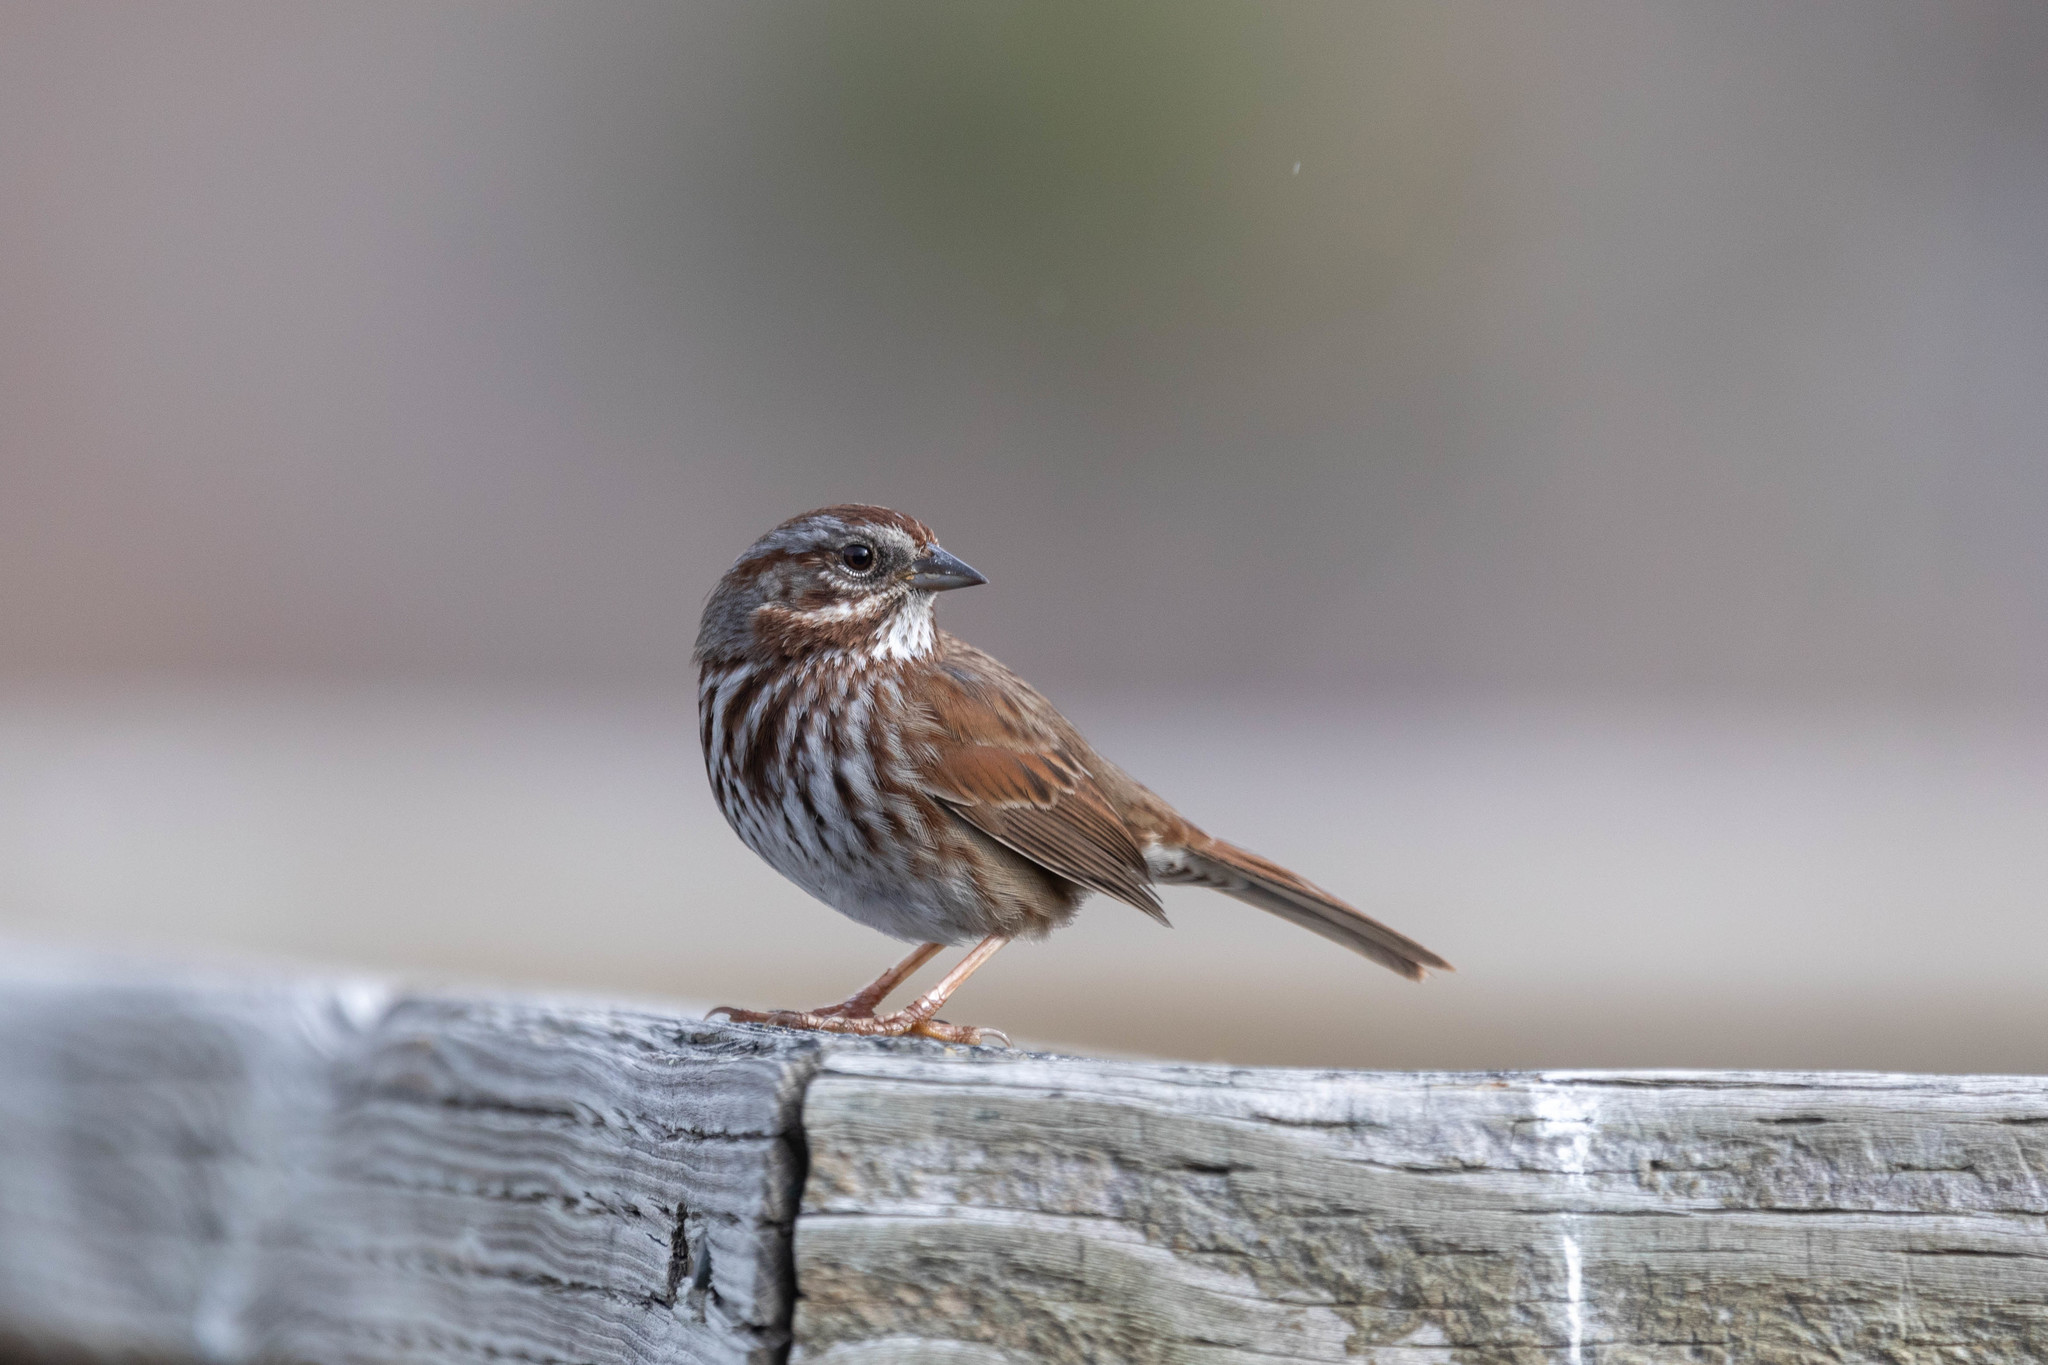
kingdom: Animalia
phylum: Chordata
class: Aves
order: Passeriformes
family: Passerellidae
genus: Melospiza
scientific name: Melospiza melodia
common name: Song sparrow
